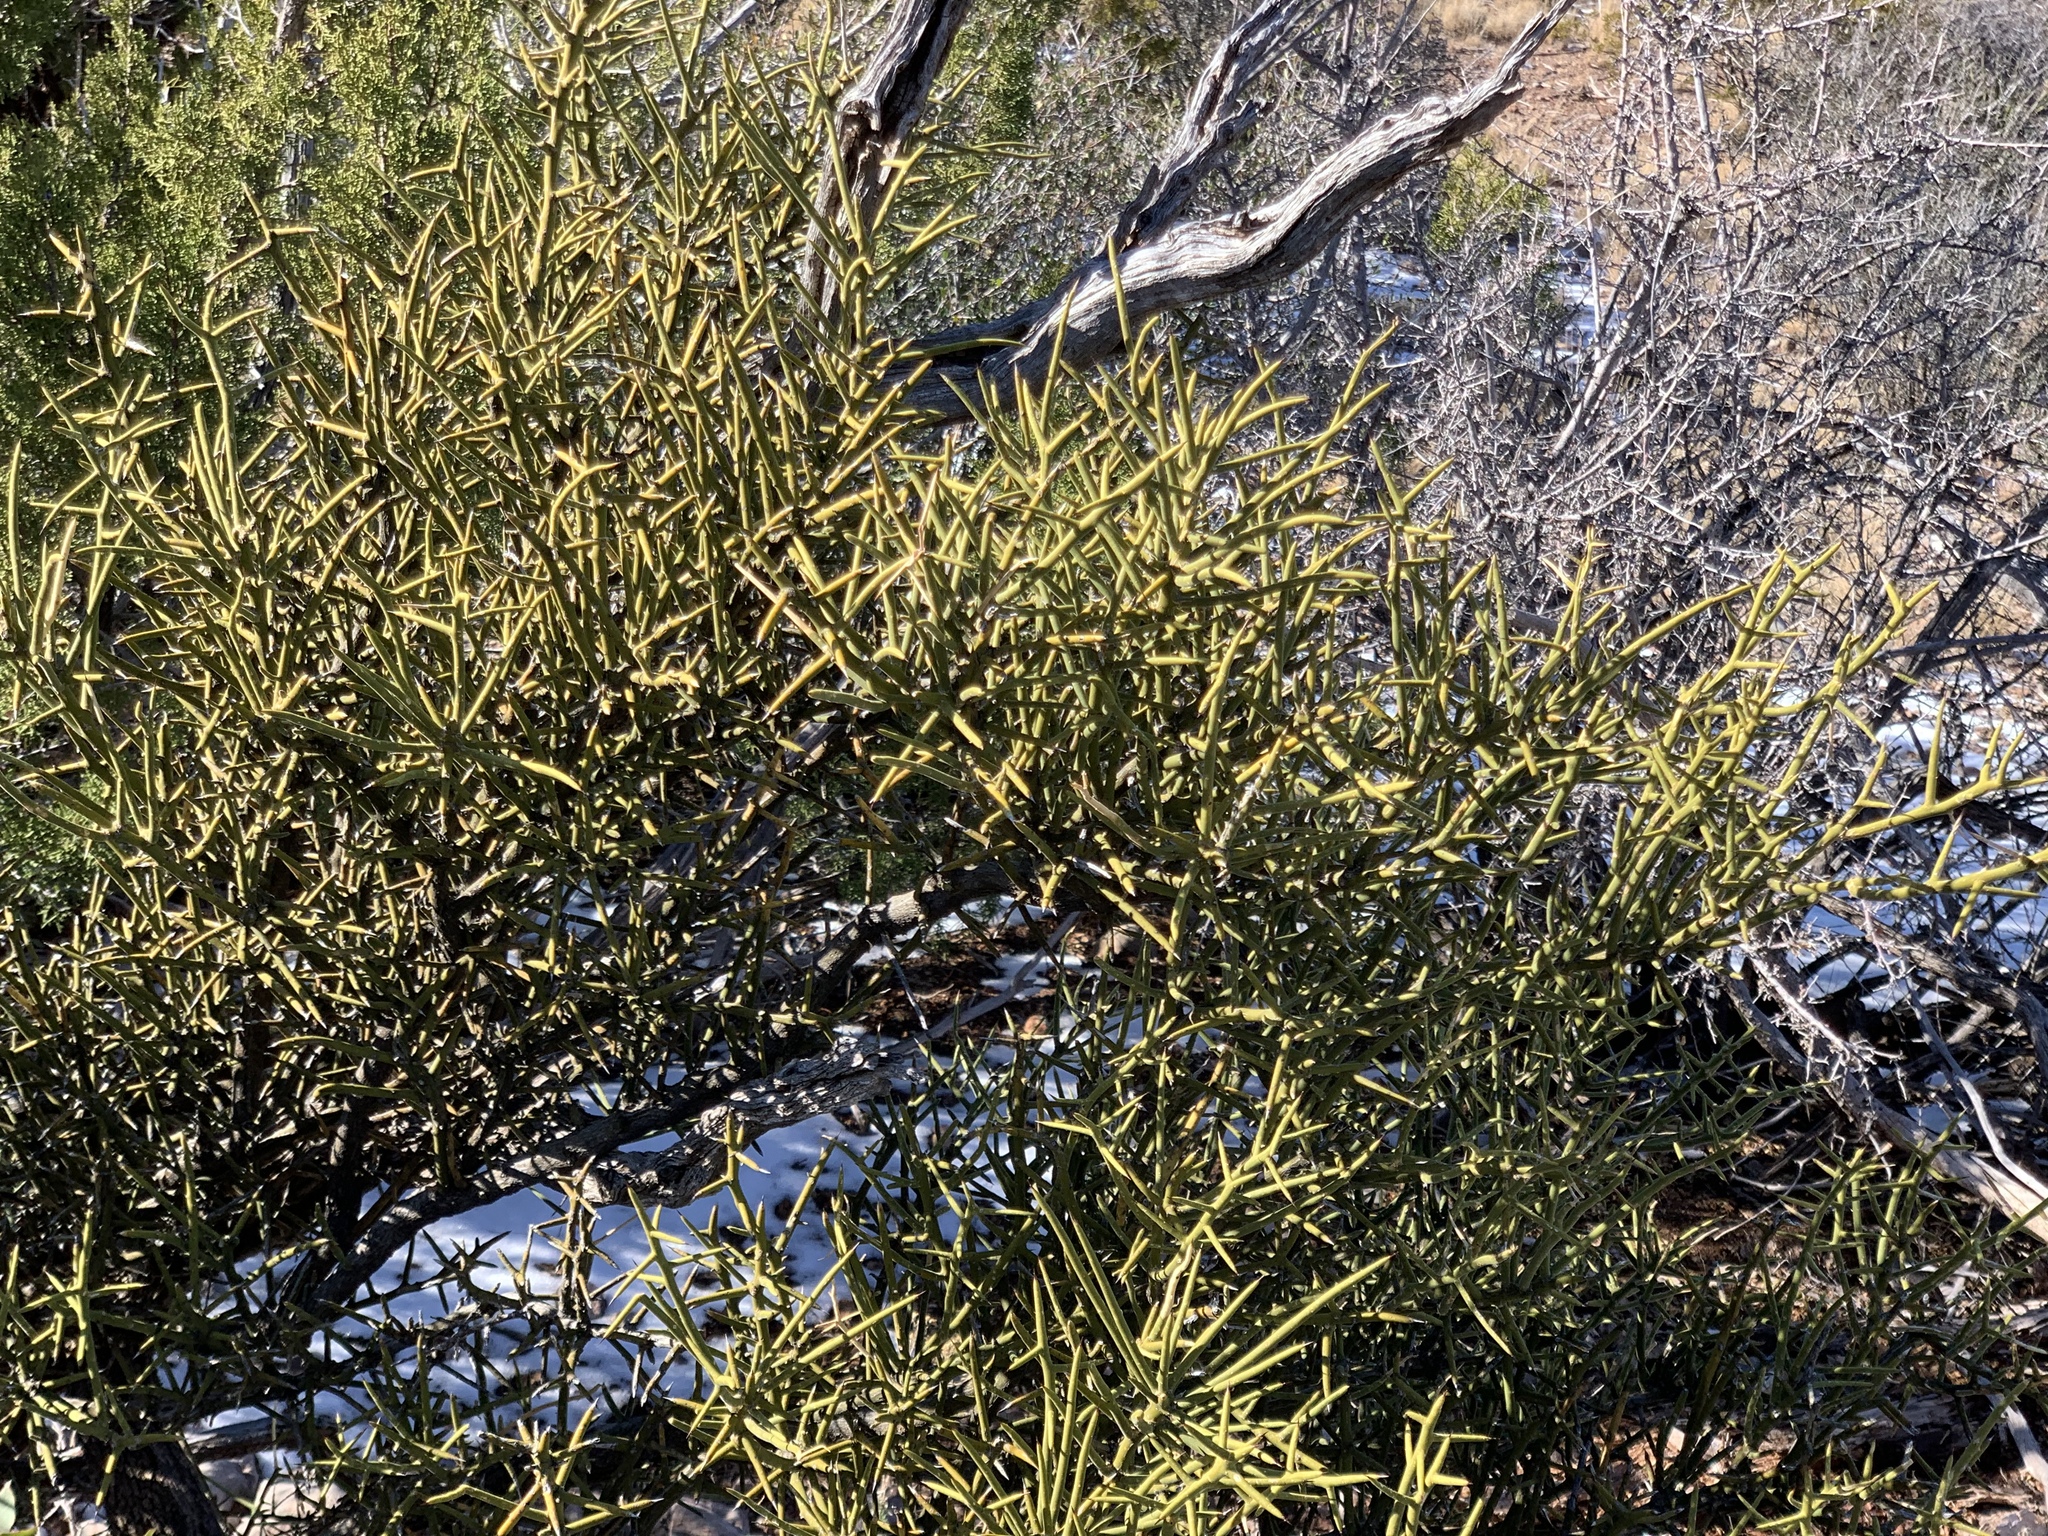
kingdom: Plantae
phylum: Tracheophyta
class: Magnoliopsida
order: Brassicales
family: Koeberliniaceae
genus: Koeberlinia
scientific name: Koeberlinia spinosa
